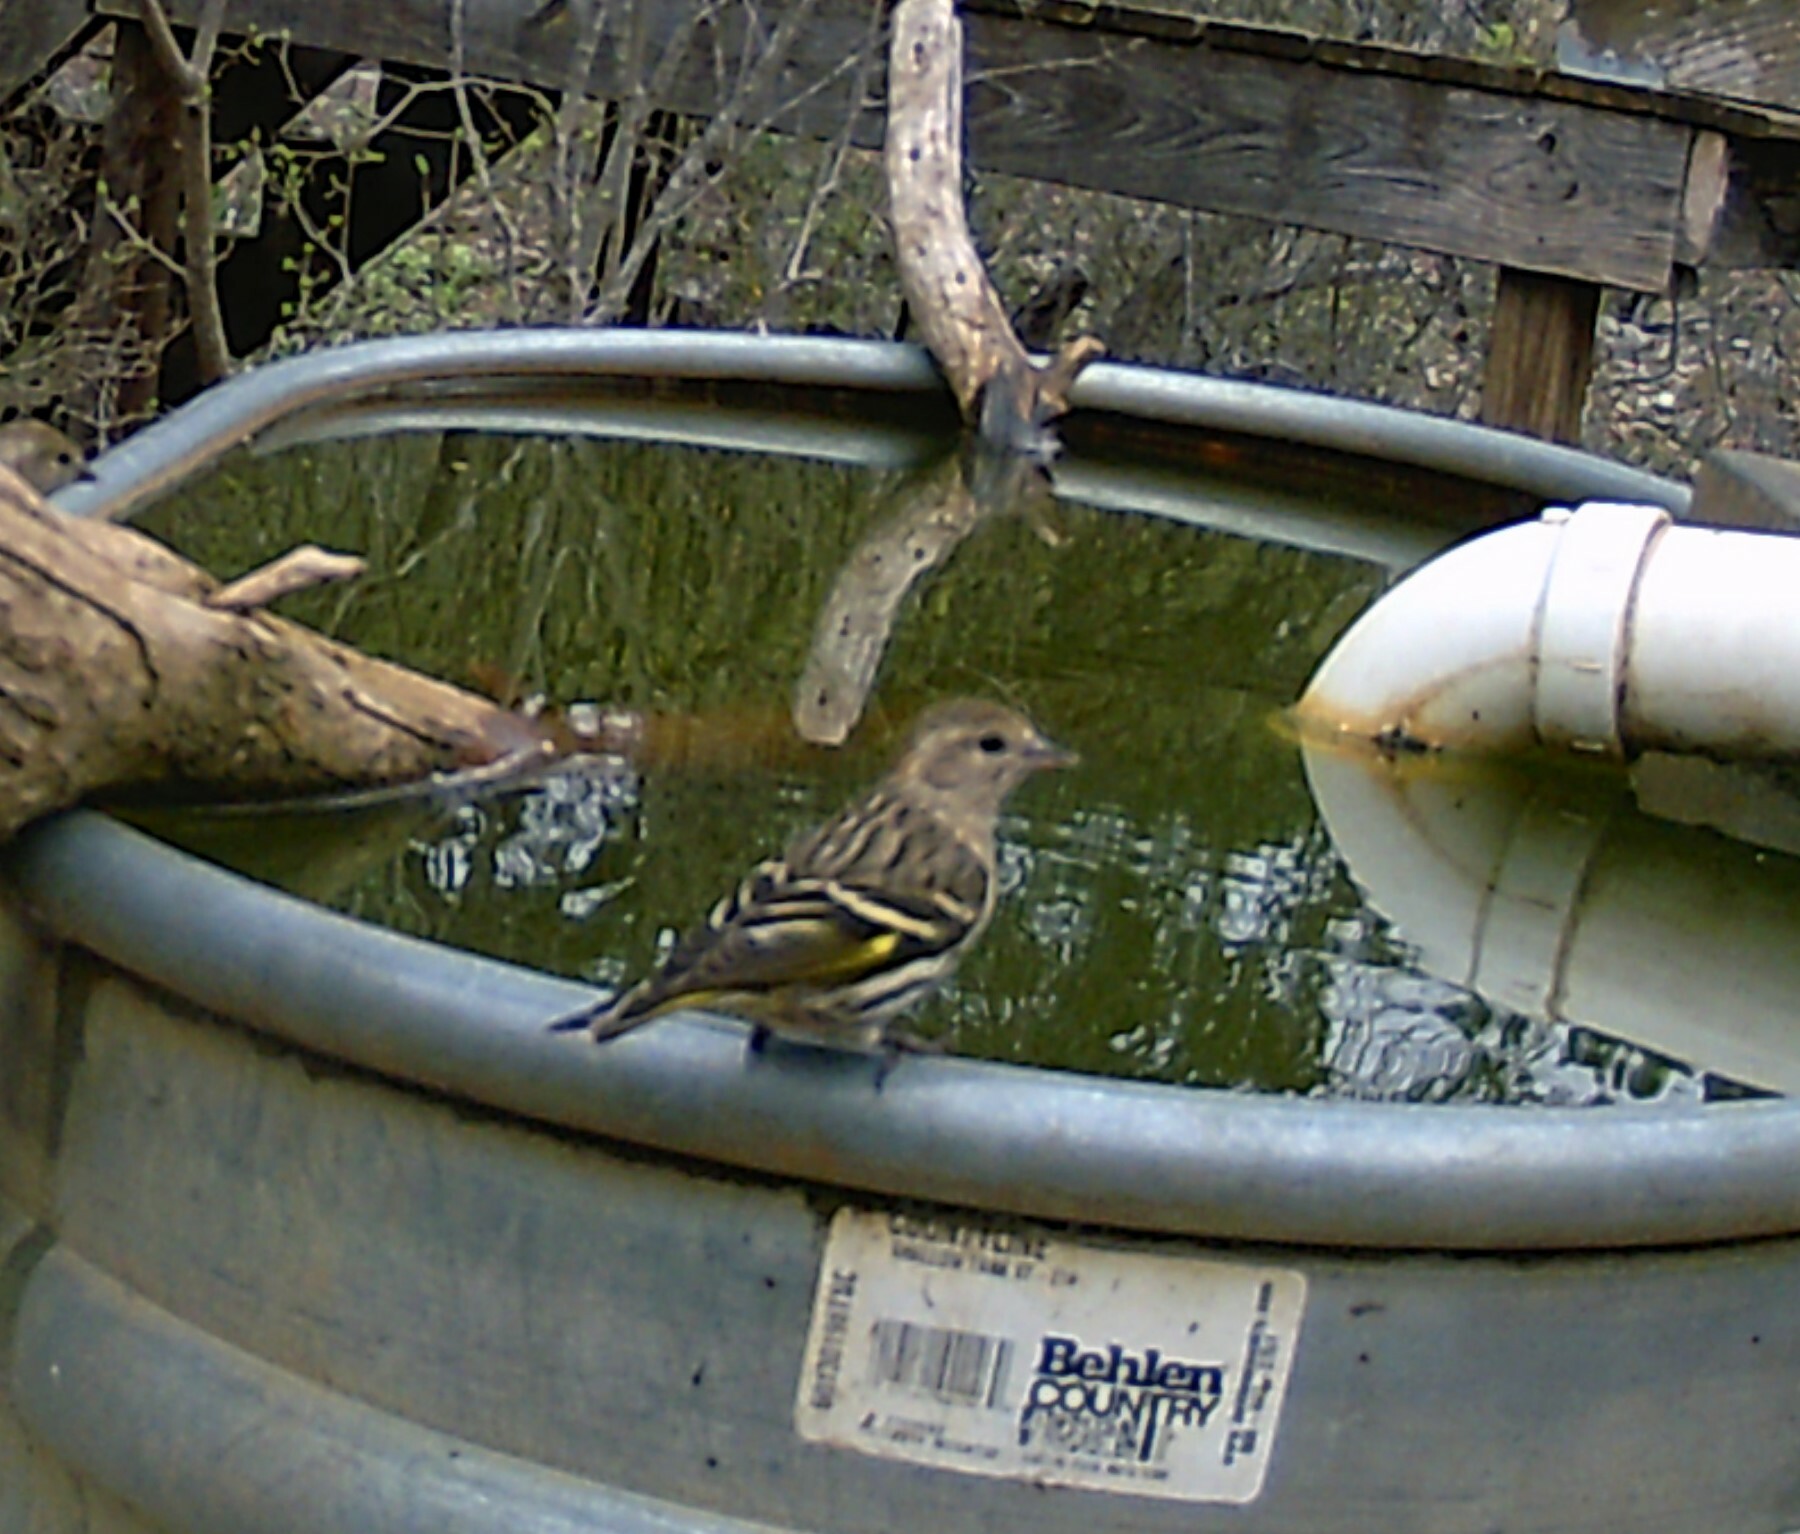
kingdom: Animalia
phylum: Chordata
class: Aves
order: Passeriformes
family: Fringillidae
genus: Spinus
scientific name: Spinus pinus
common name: Pine siskin
